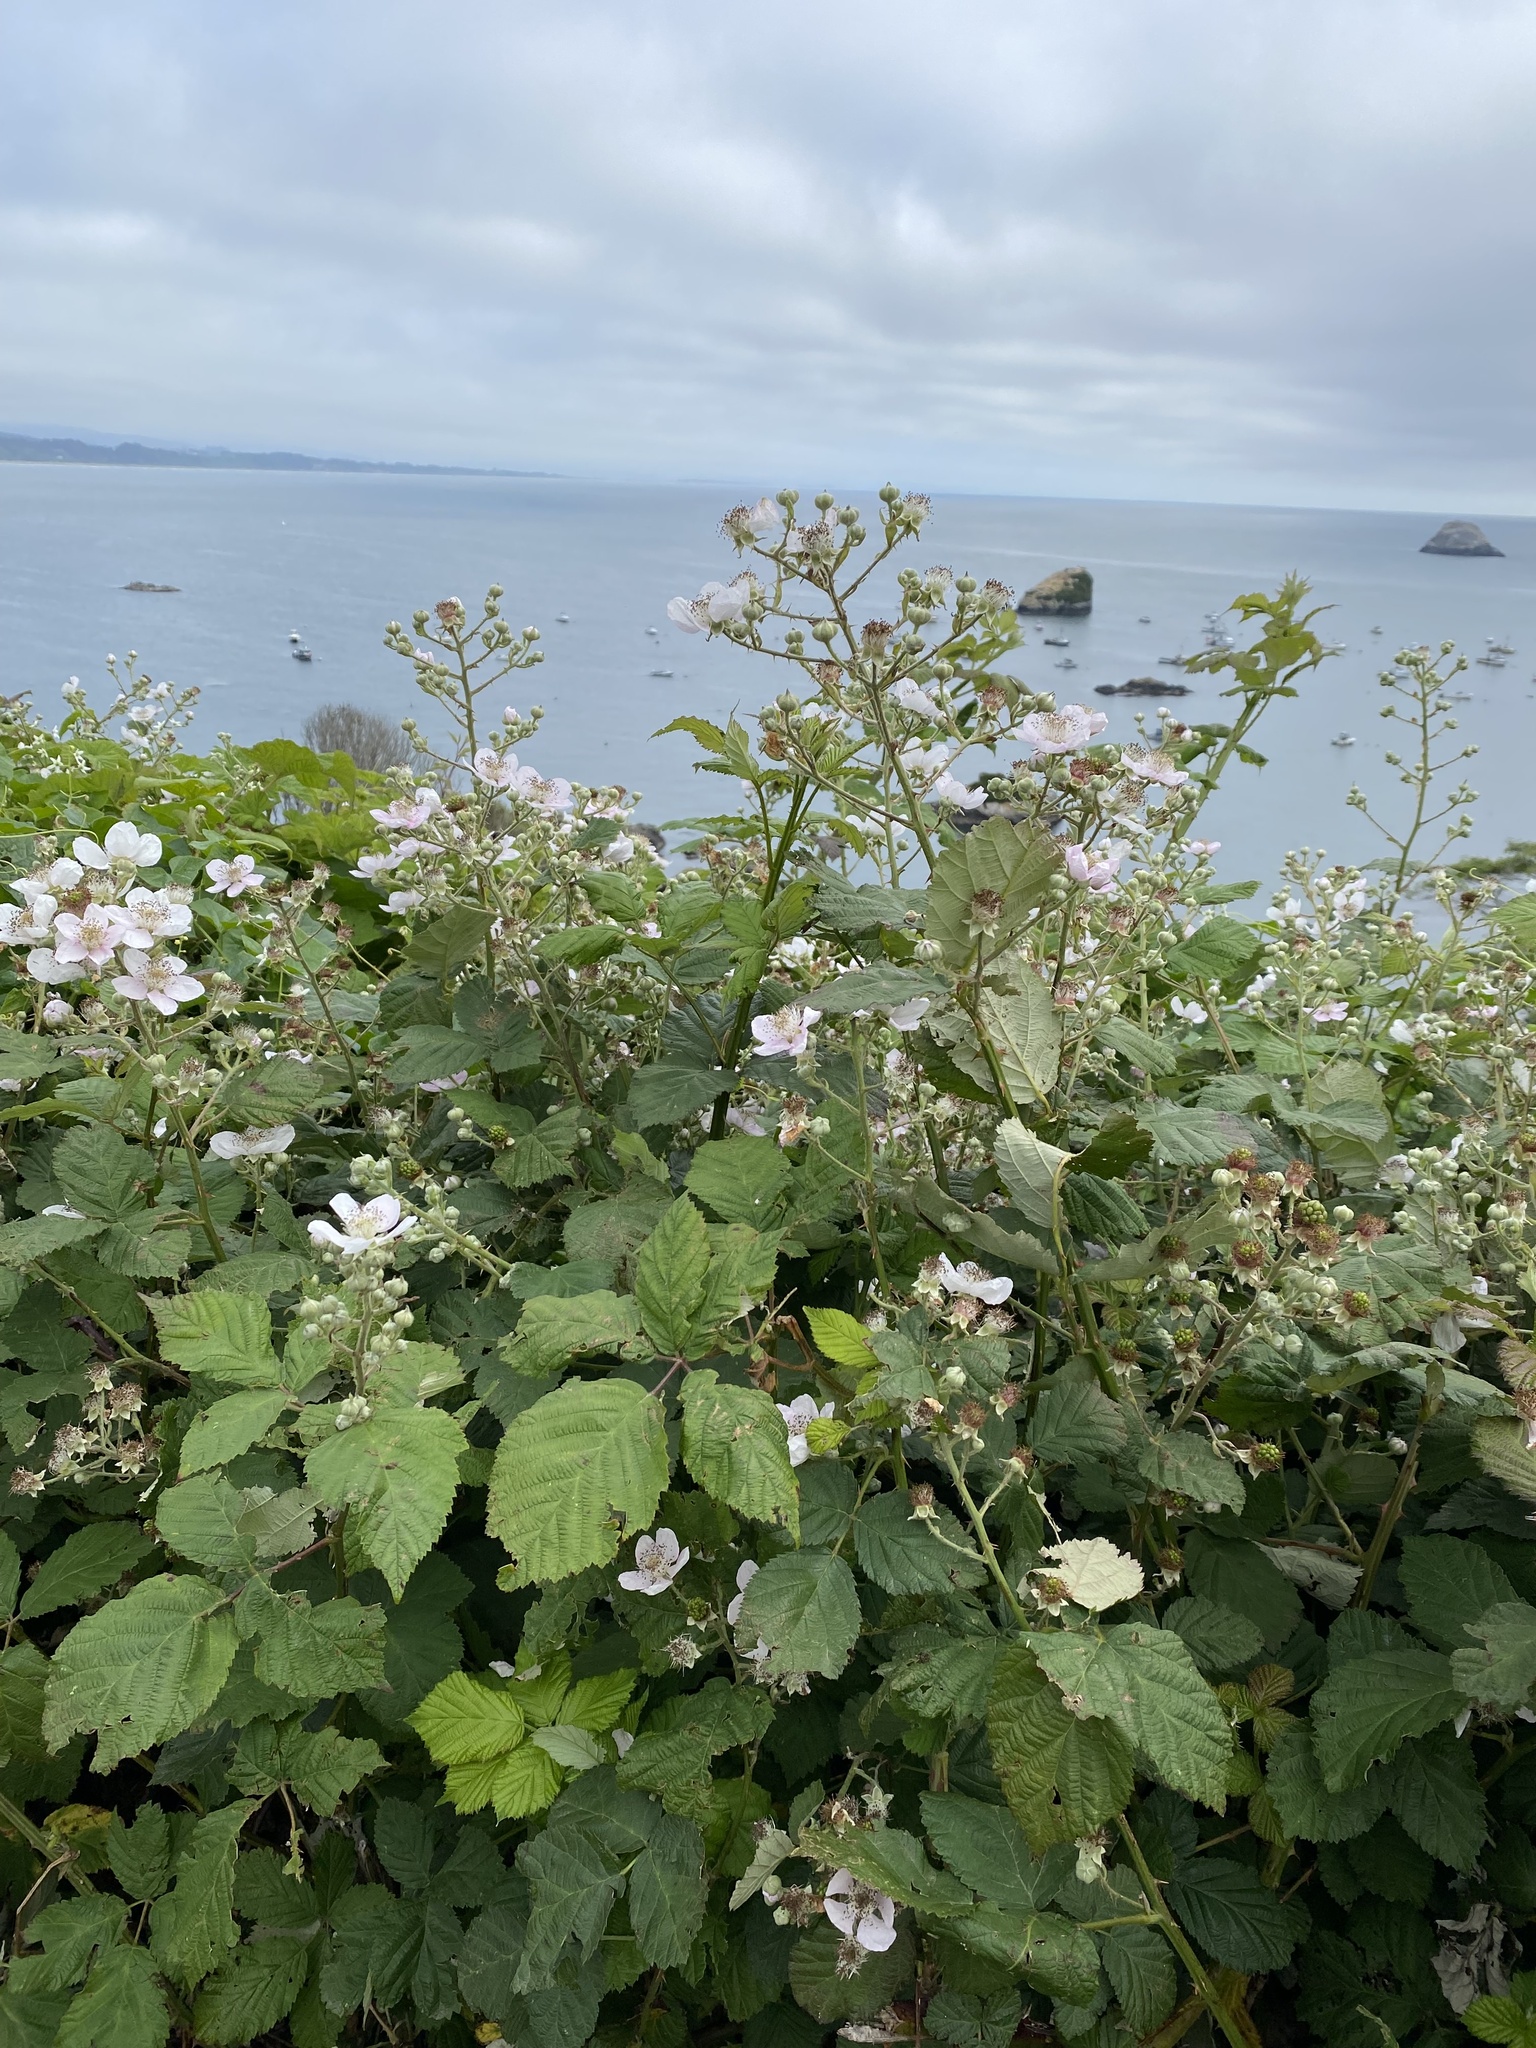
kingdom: Plantae
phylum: Tracheophyta
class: Magnoliopsida
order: Rosales
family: Rosaceae
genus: Rubus
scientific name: Rubus armeniacus
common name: Himalayan blackberry
